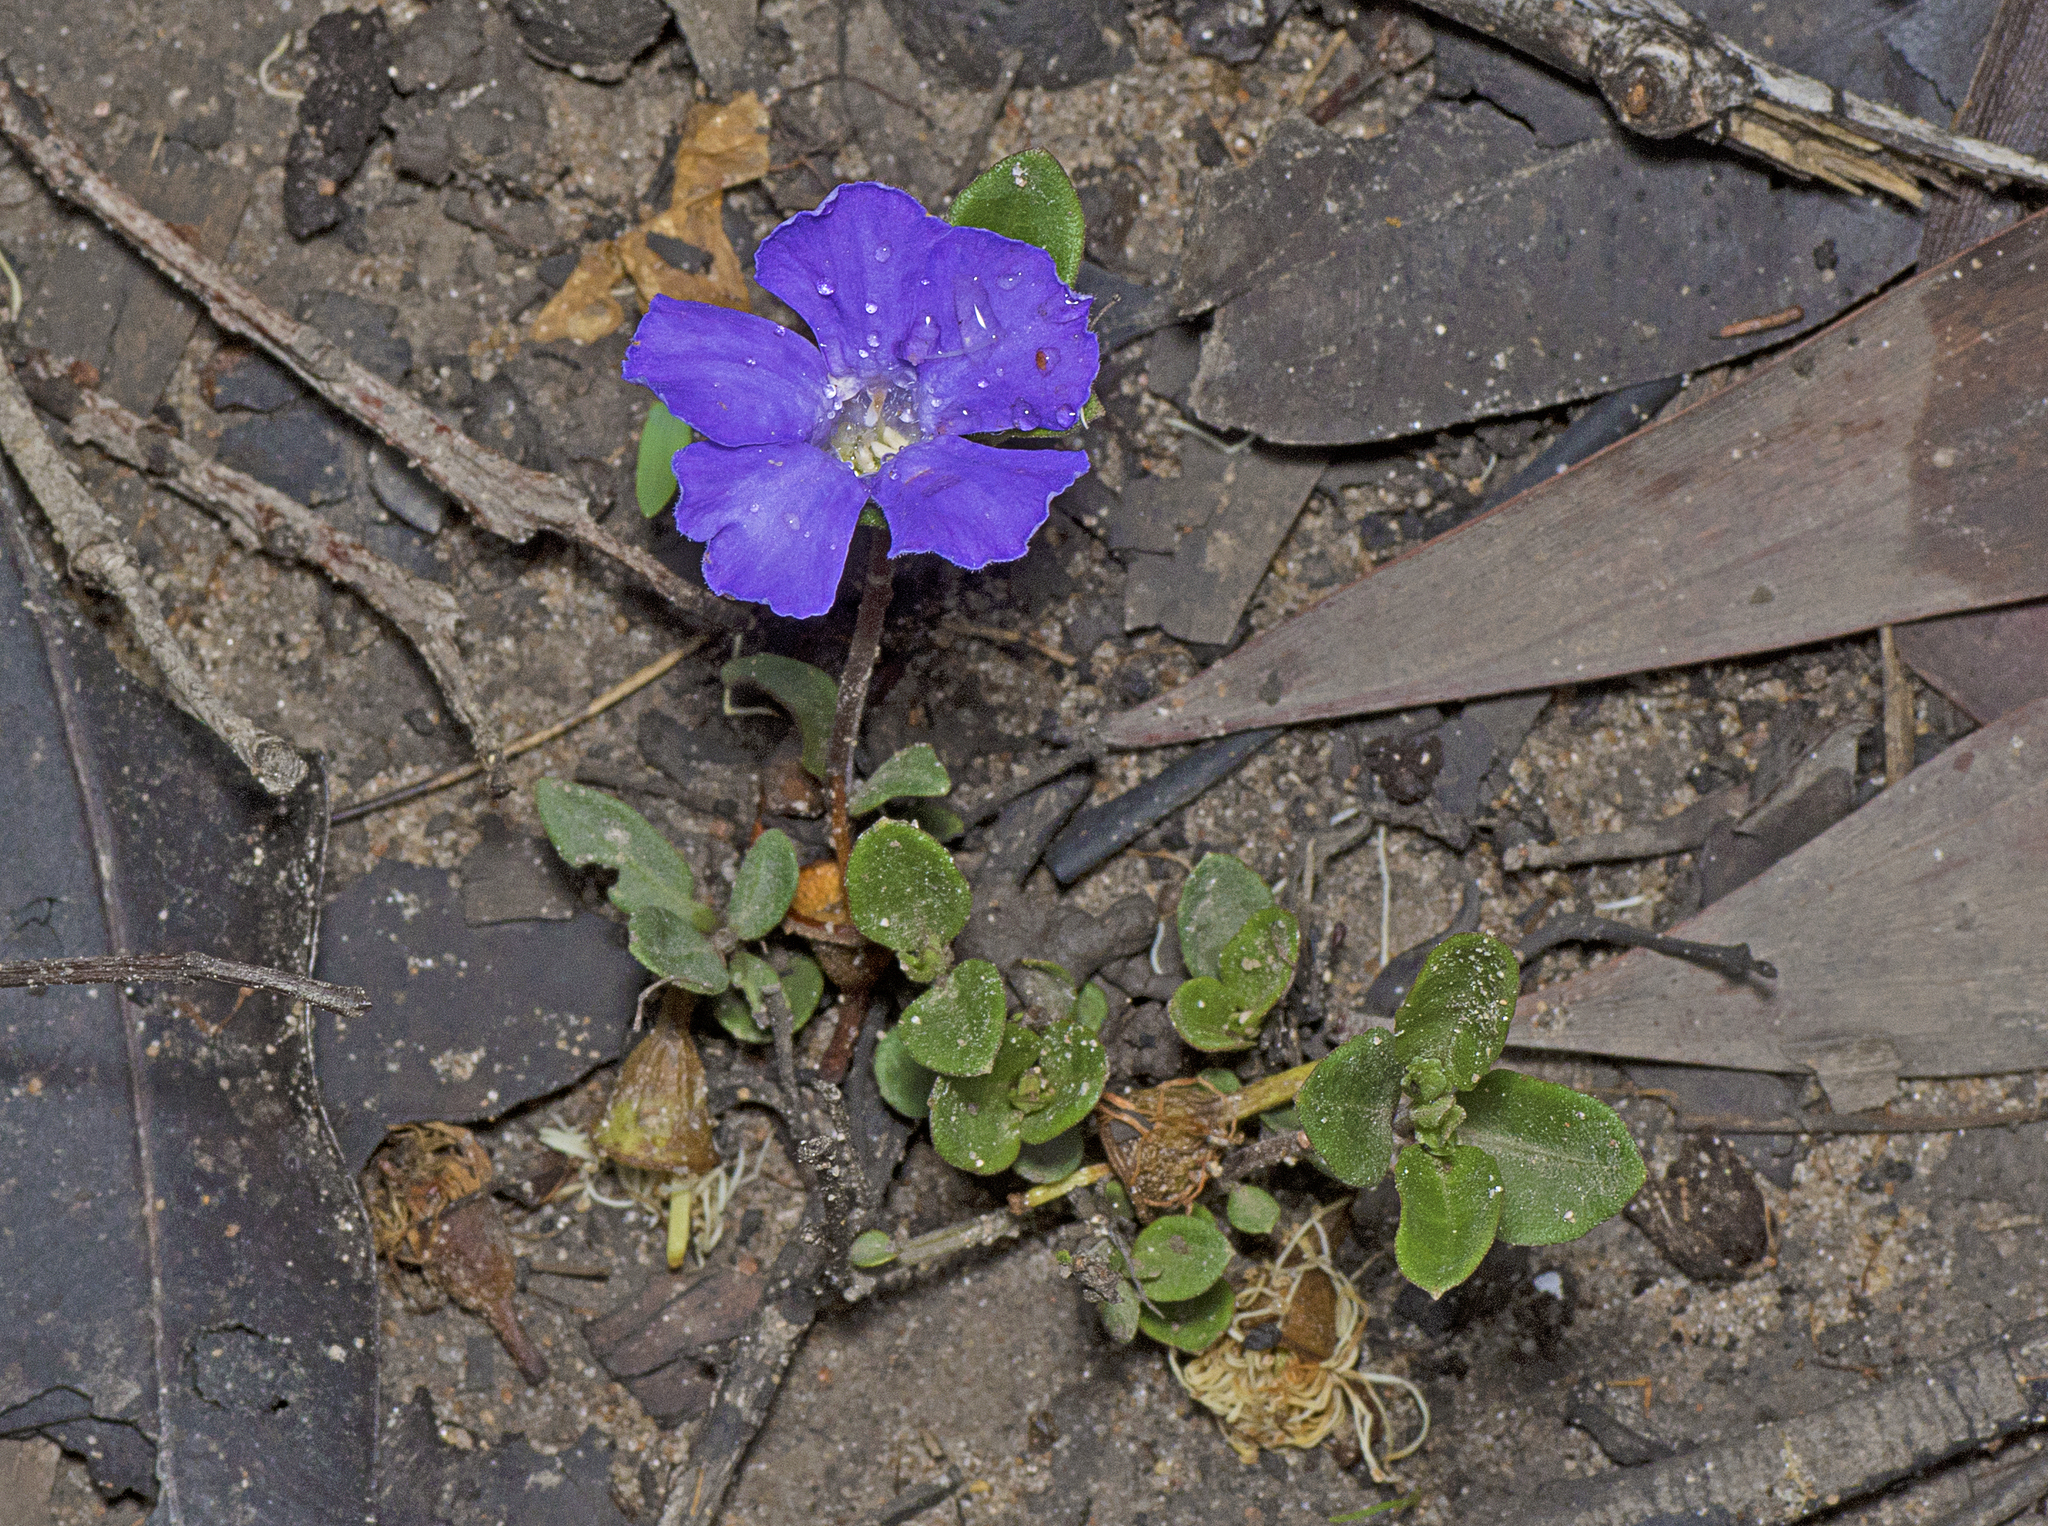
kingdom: Plantae
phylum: Tracheophyta
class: Magnoliopsida
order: Lamiales
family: Acanthaceae
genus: Brunoniella
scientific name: Brunoniella australis
